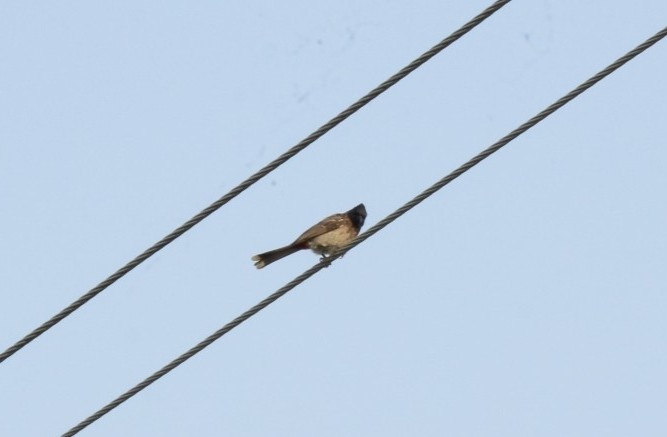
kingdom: Animalia
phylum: Chordata
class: Aves
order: Passeriformes
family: Pycnonotidae
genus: Pycnonotus
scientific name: Pycnonotus cafer
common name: Red-vented bulbul
